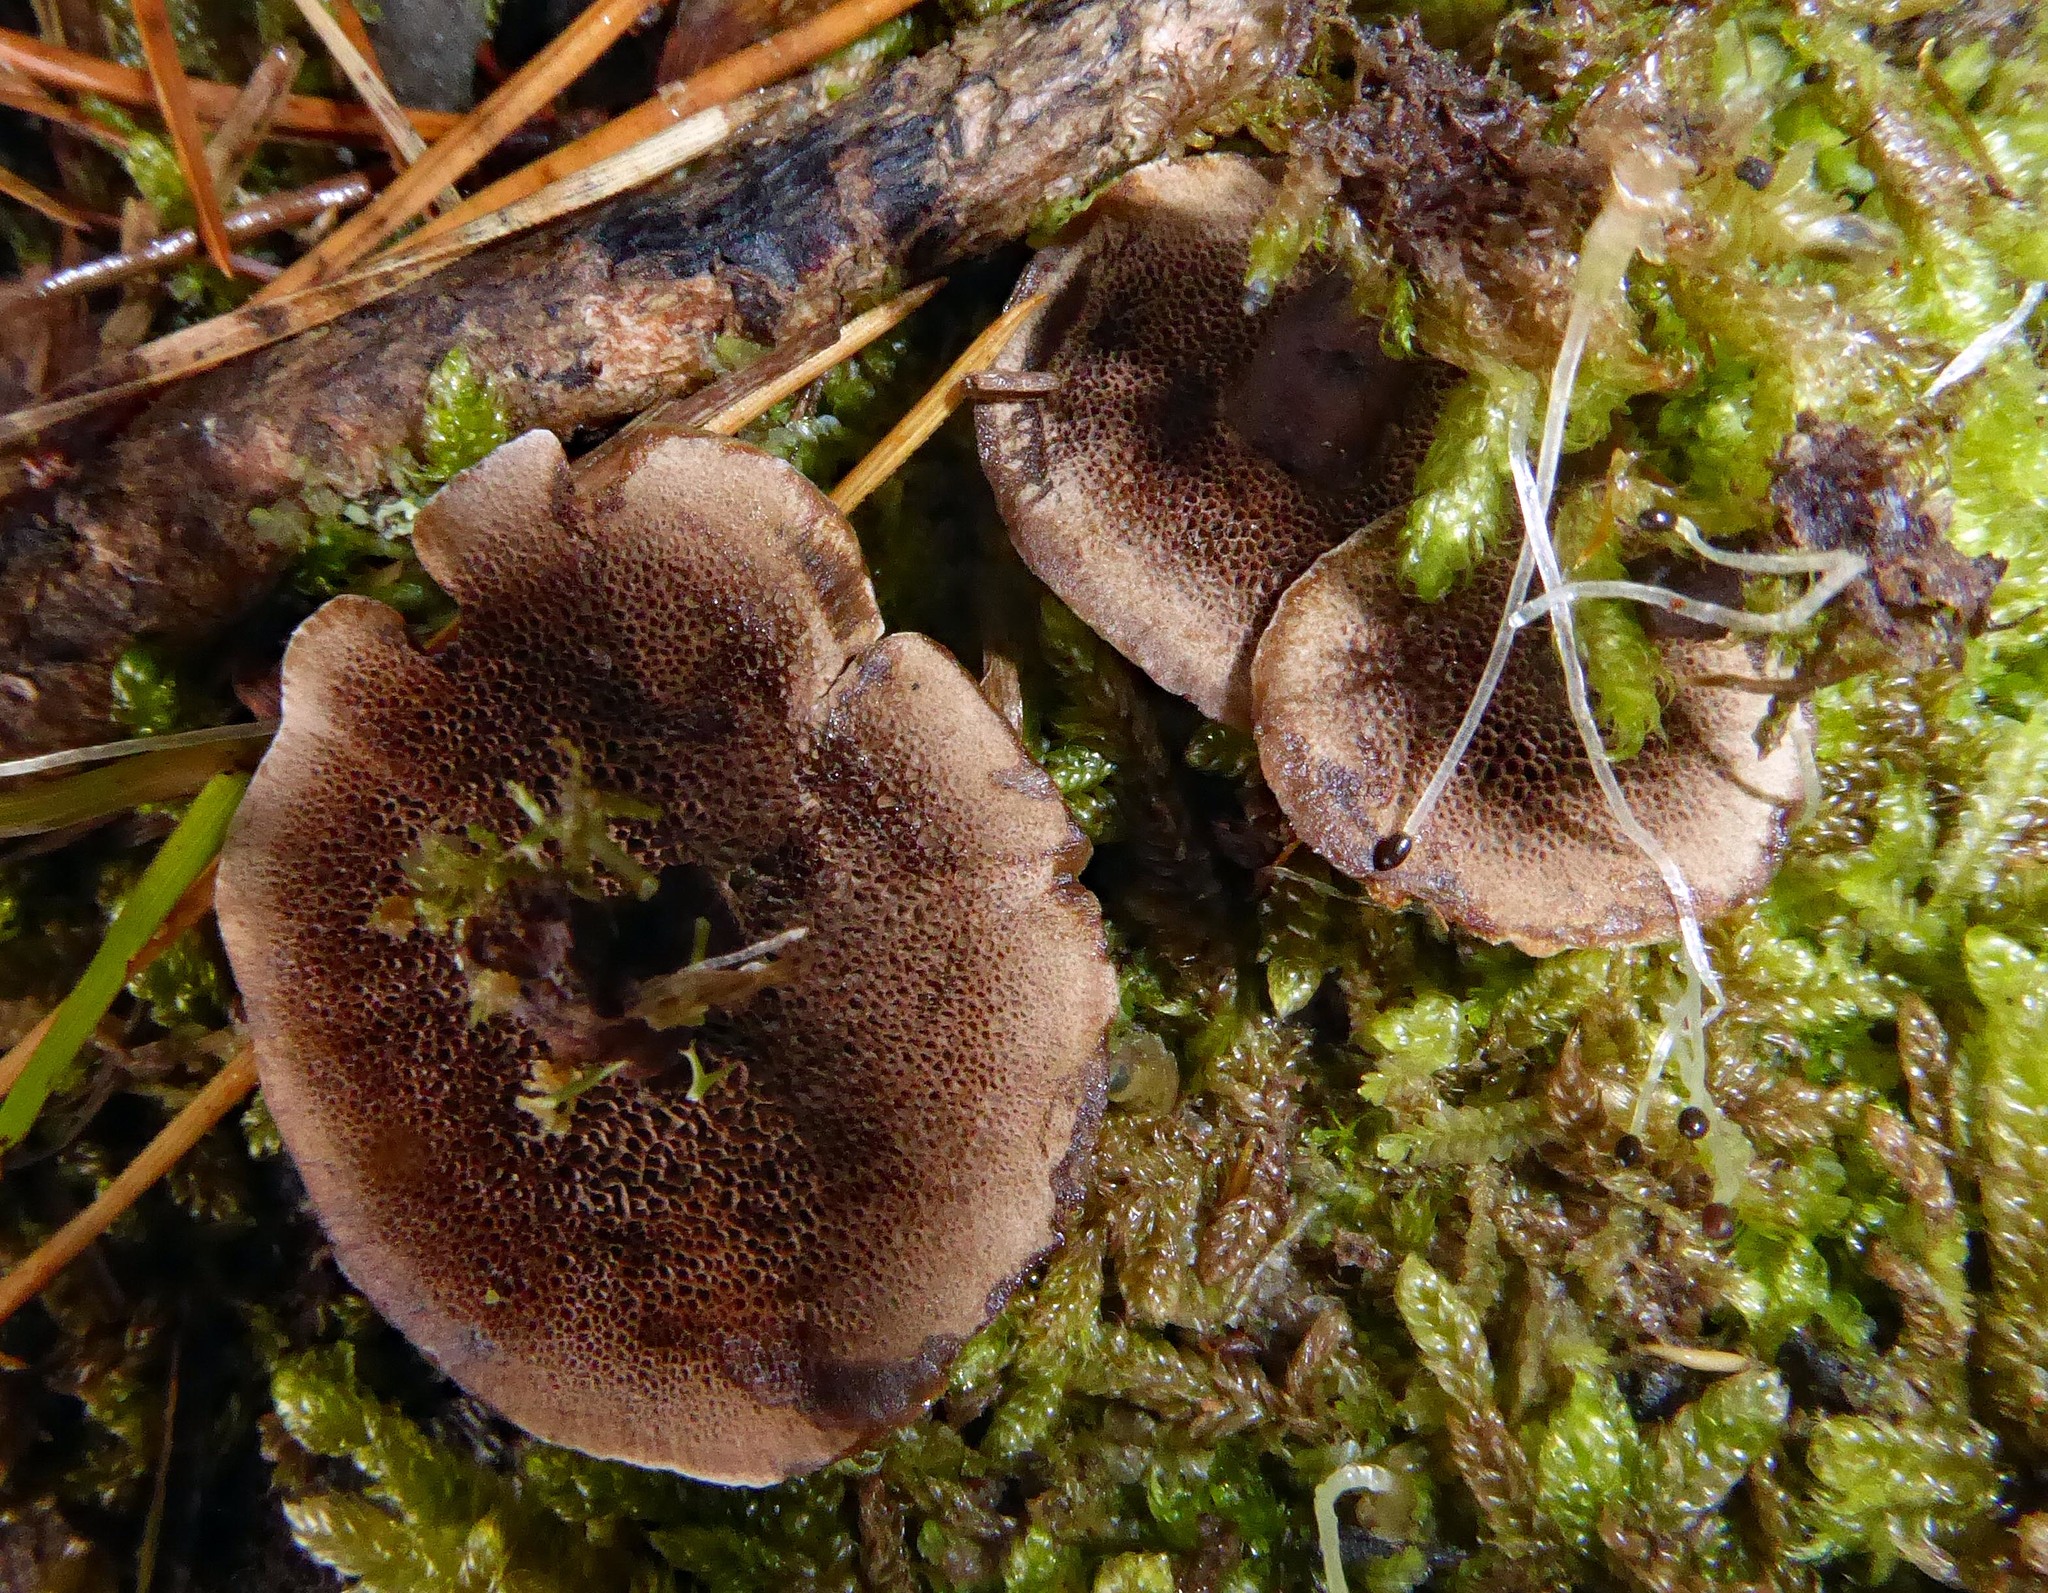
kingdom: Fungi
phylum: Basidiomycota
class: Agaricomycetes
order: Hymenochaetales
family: Hymenochaetaceae
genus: Coltricia
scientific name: Coltricia cinnamomea
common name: Shiny cinnamon polypore
